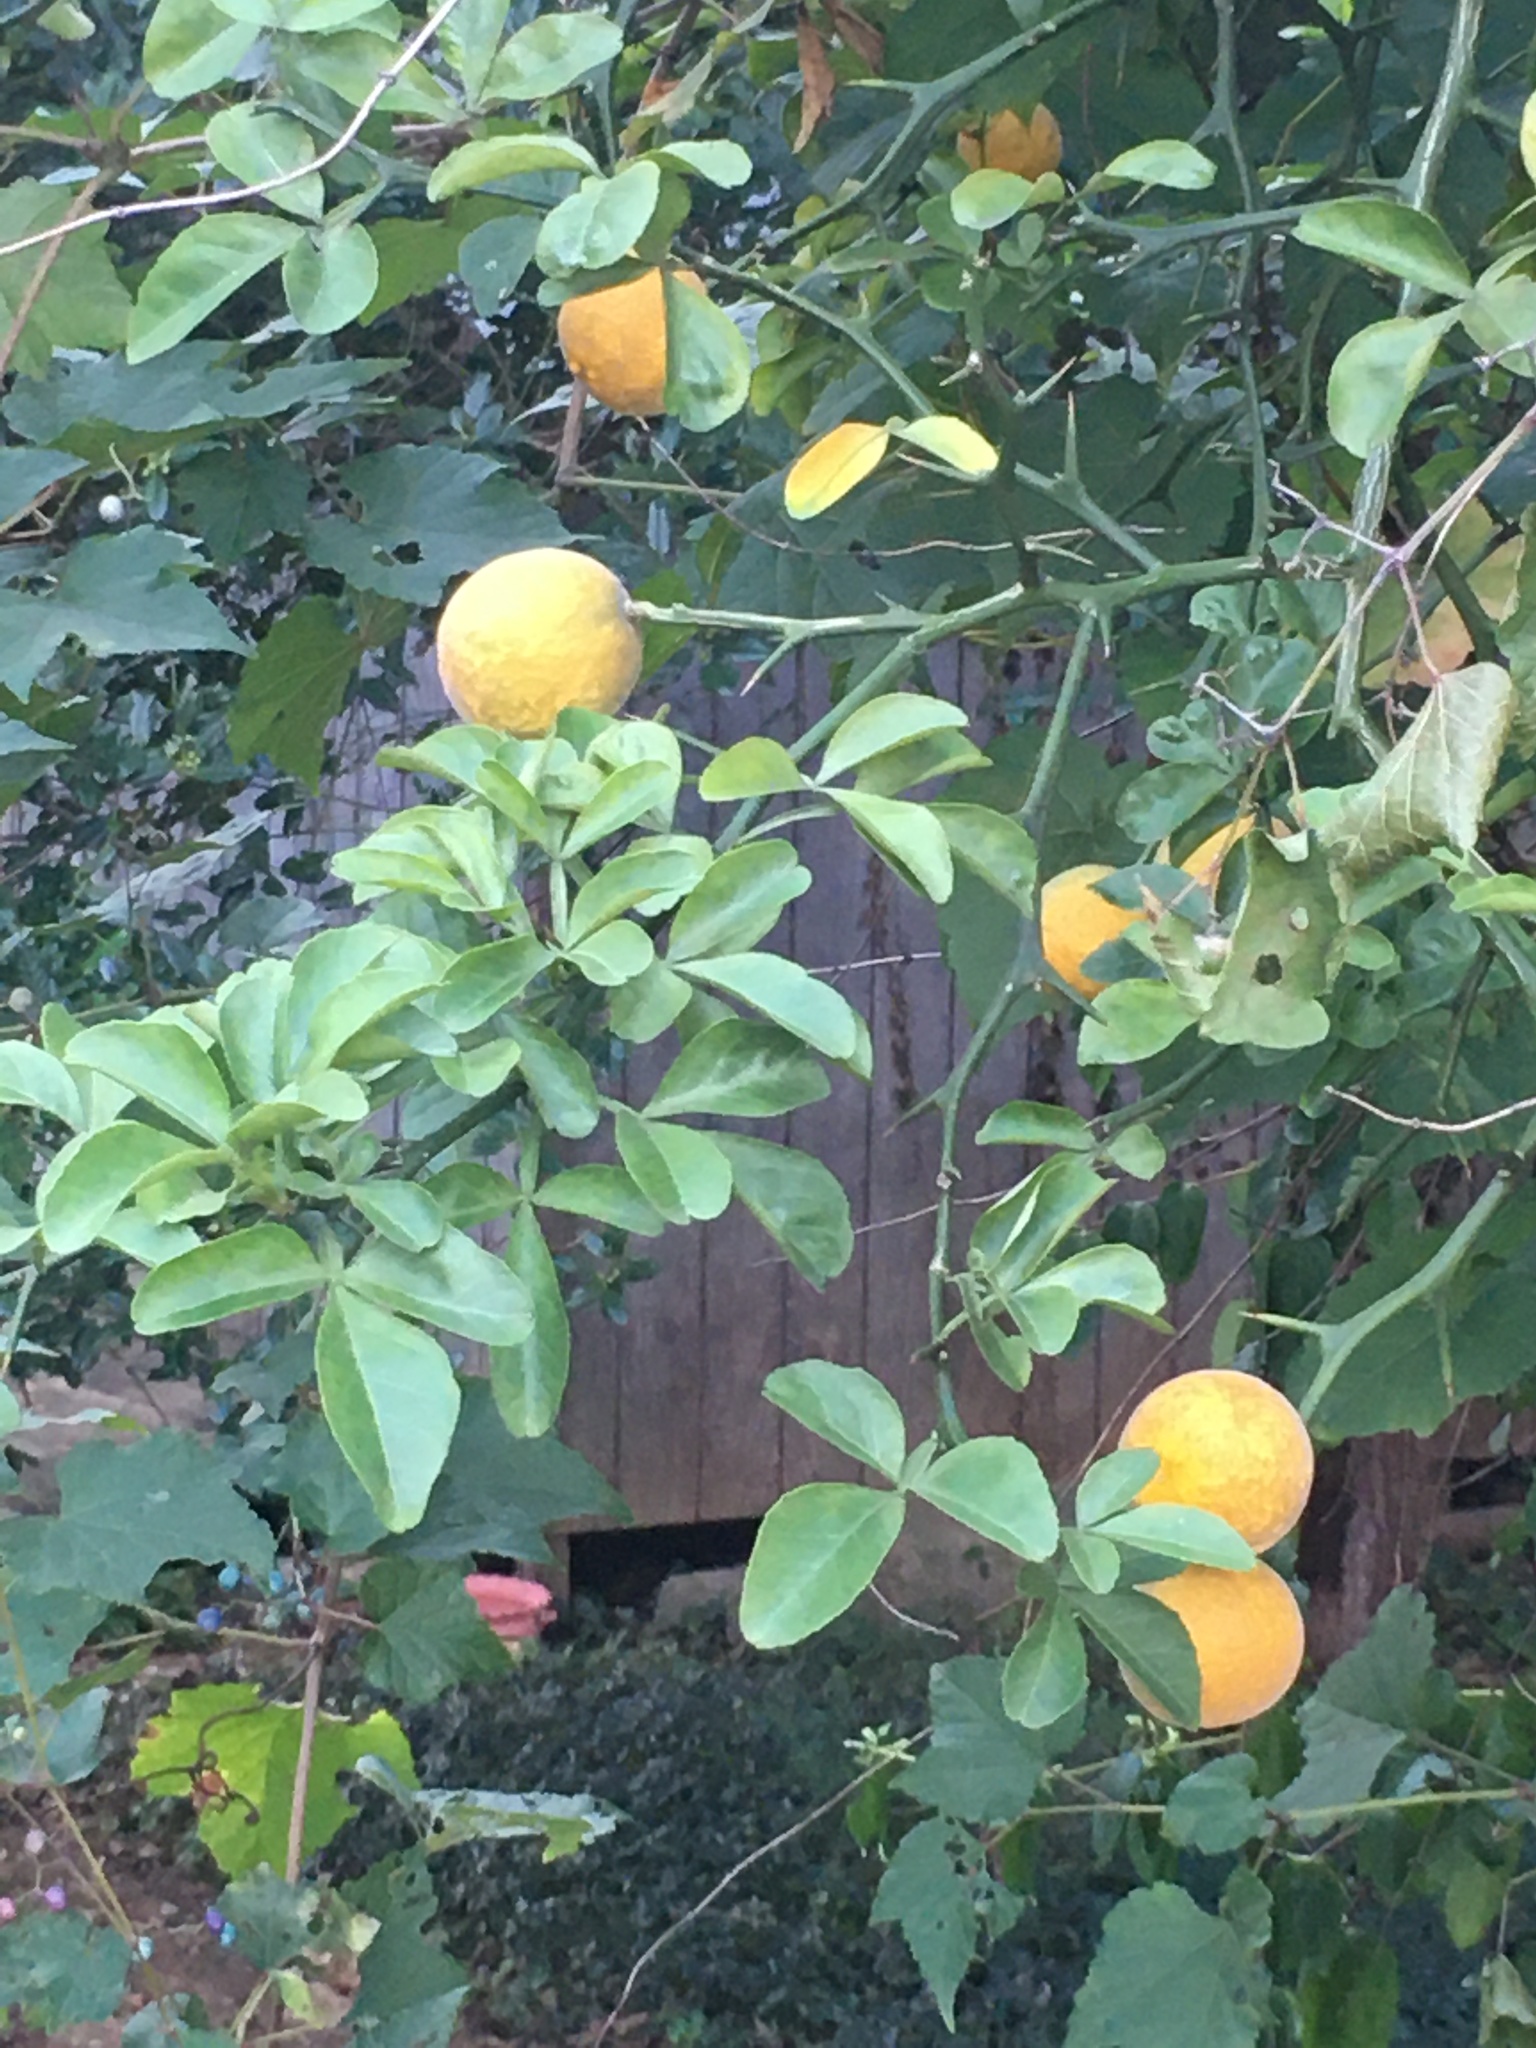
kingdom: Plantae
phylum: Tracheophyta
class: Magnoliopsida
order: Sapindales
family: Rutaceae
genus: Citrus
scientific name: Citrus trifoliata
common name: Japanese bitter-orange
